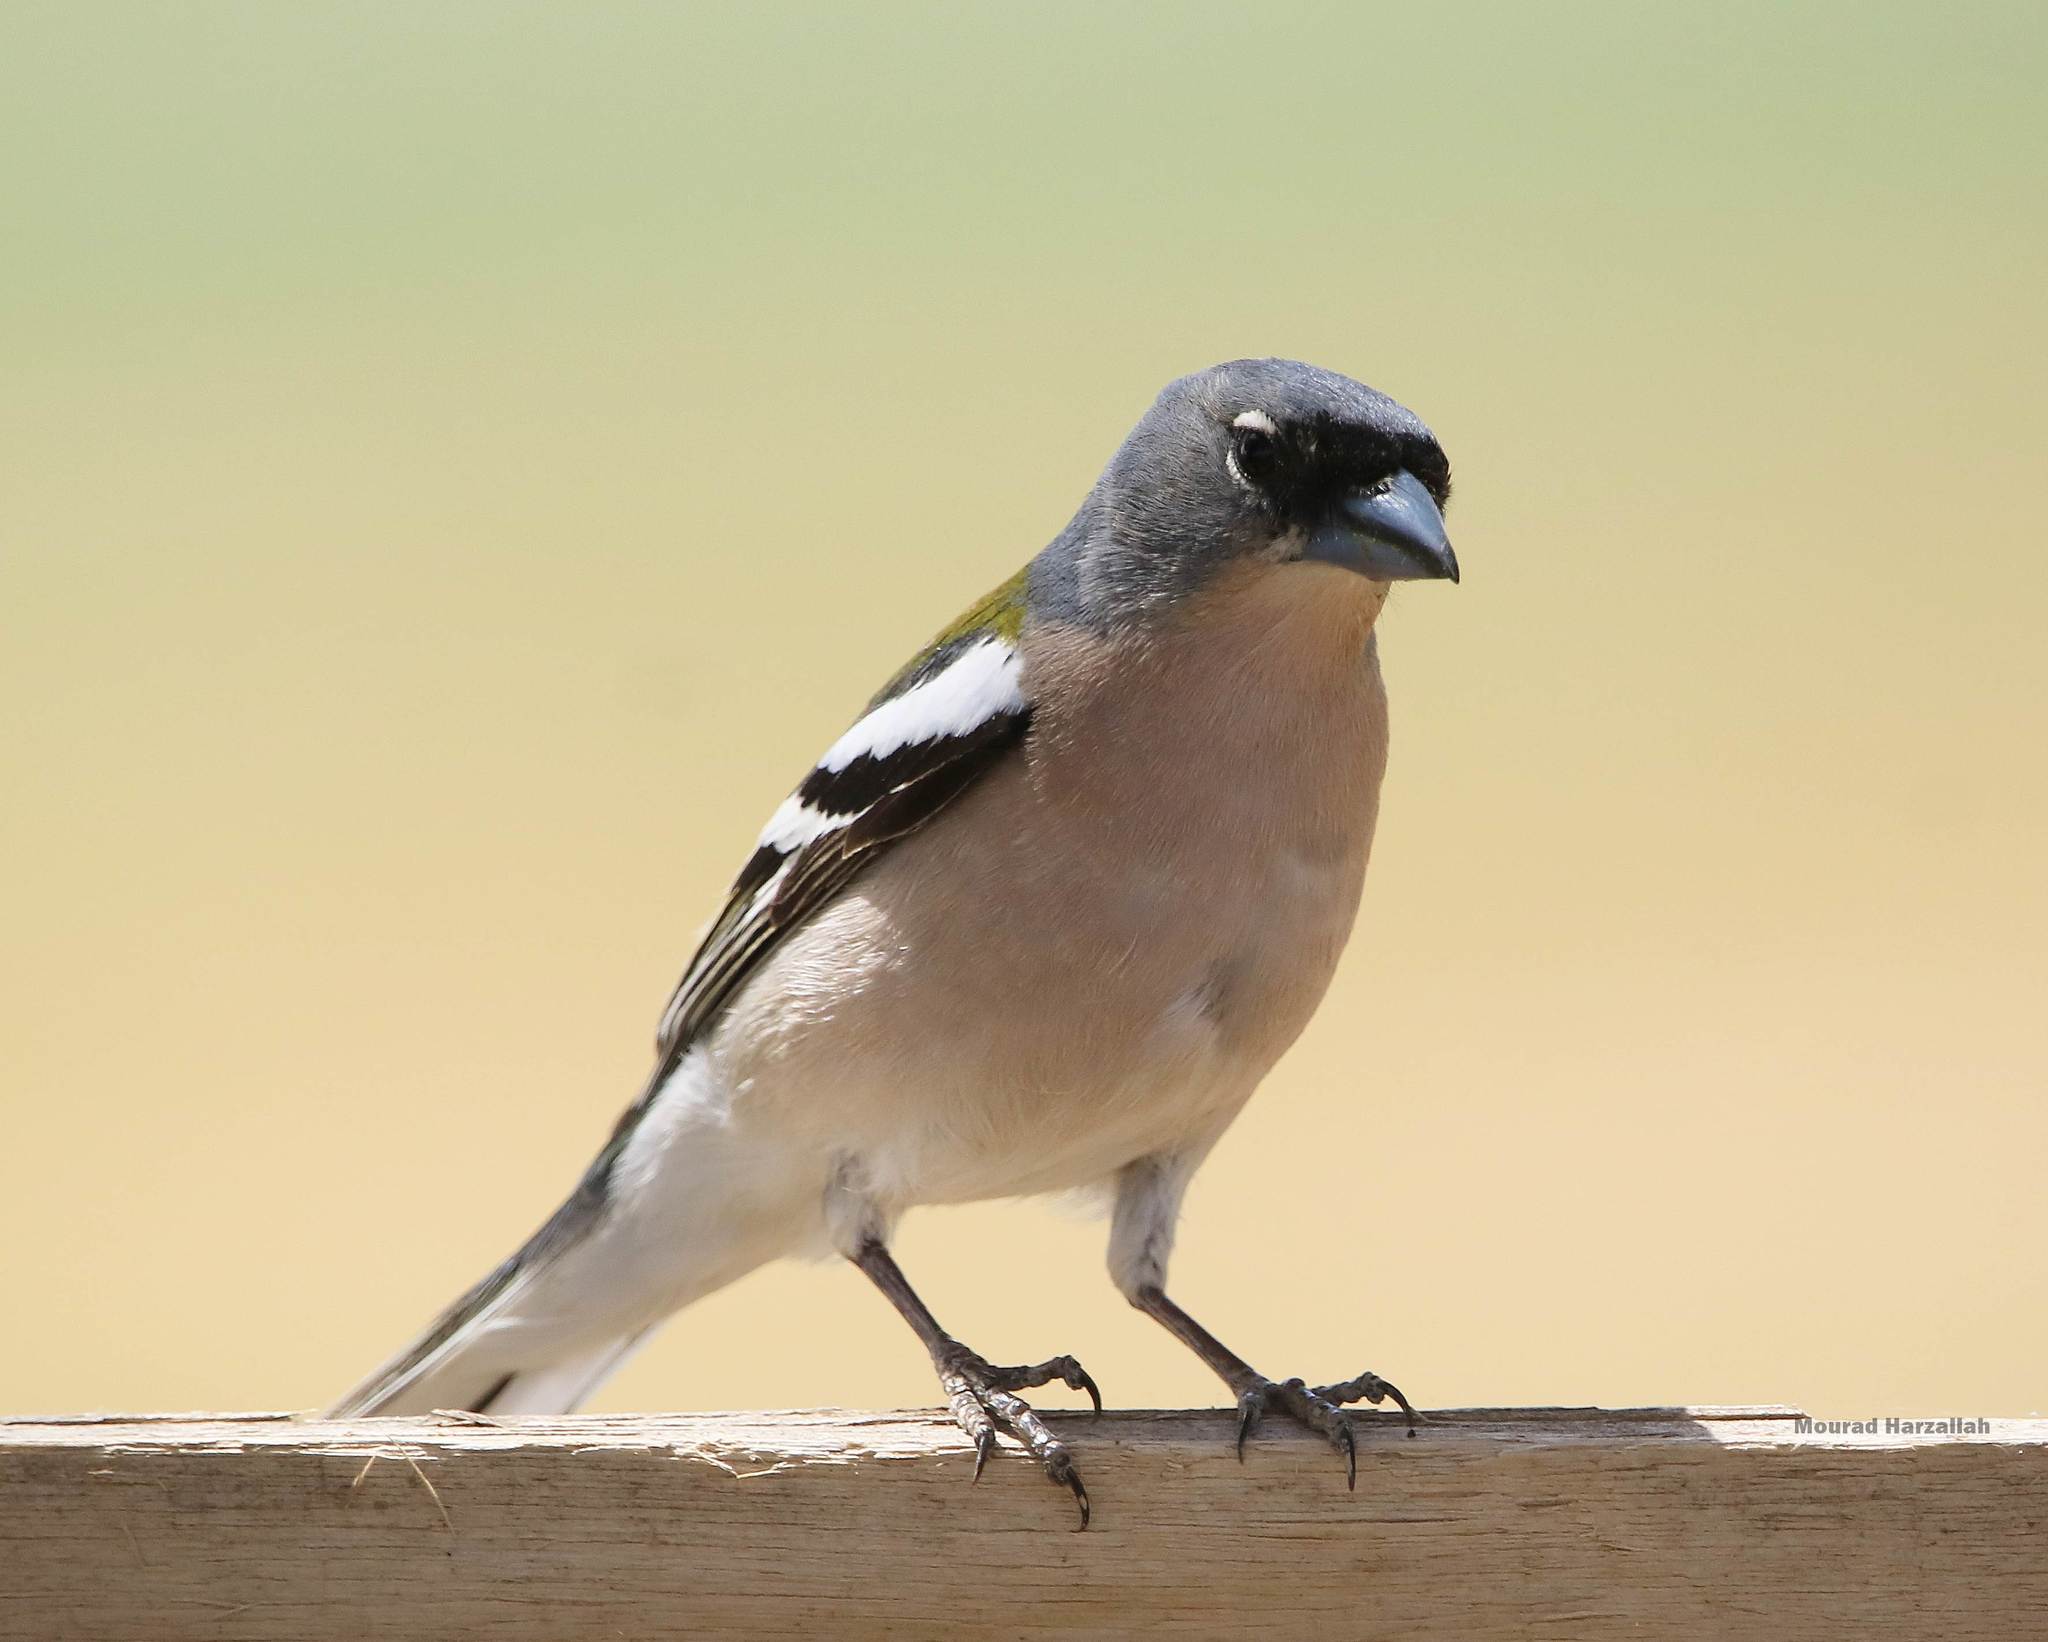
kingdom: Animalia
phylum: Chordata
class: Aves
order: Passeriformes
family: Fringillidae
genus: Fringilla
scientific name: Fringilla spodiogenys
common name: African chaffinch
